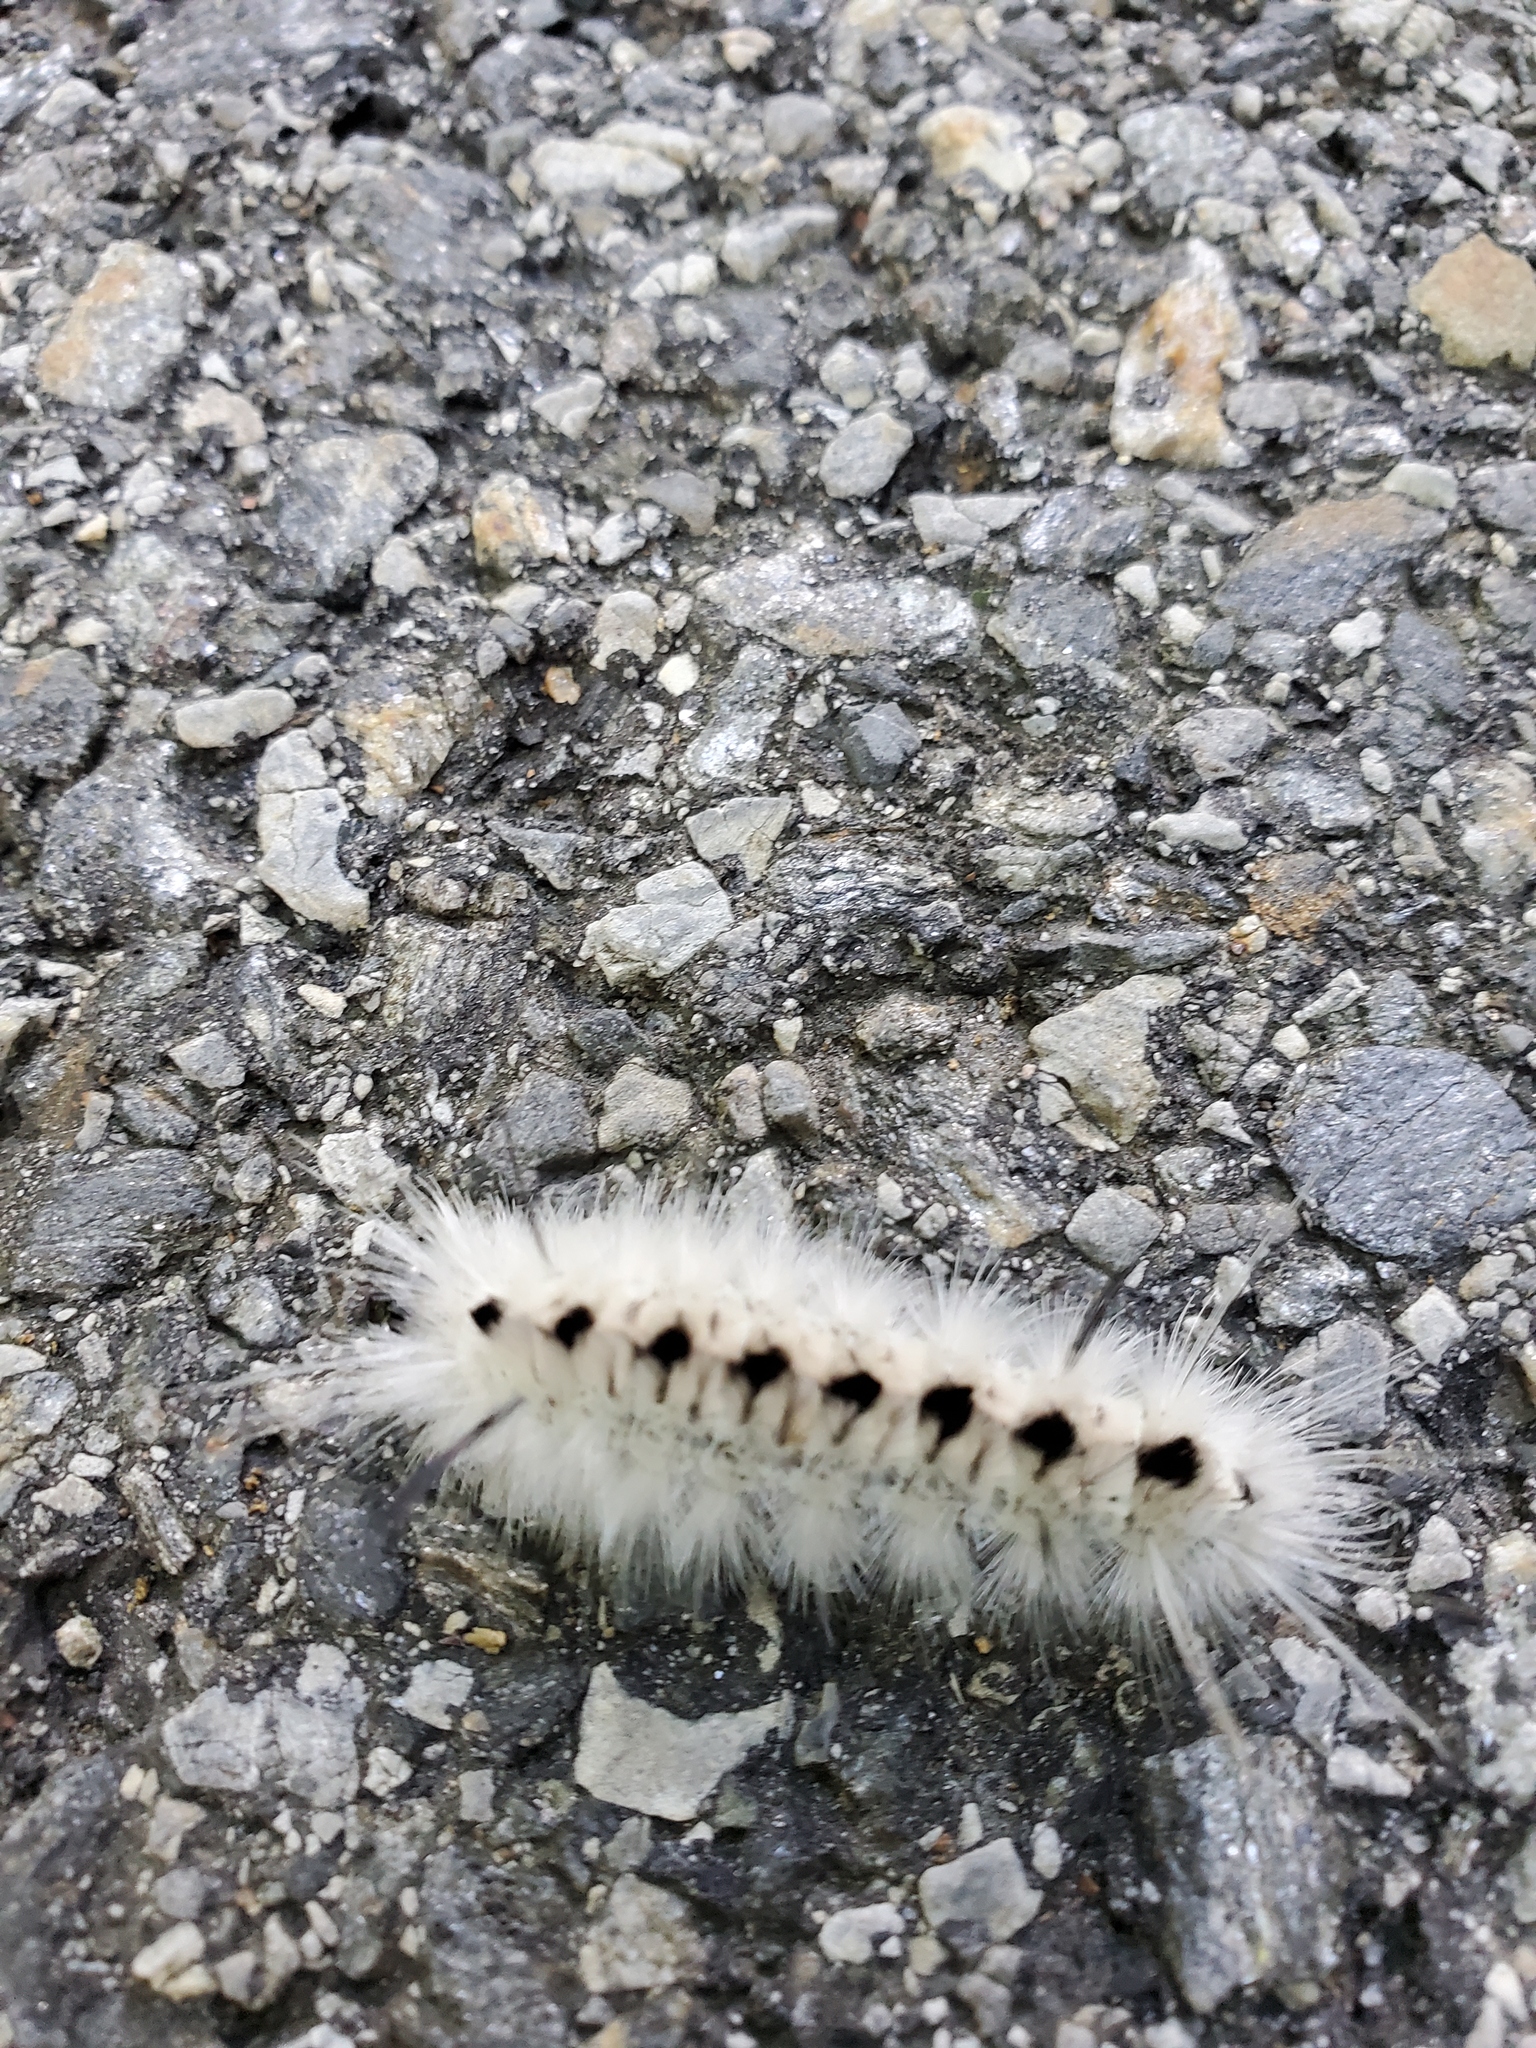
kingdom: Animalia
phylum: Arthropoda
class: Insecta
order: Lepidoptera
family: Erebidae
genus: Lophocampa
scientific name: Lophocampa caryae
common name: Hickory tussock moth
